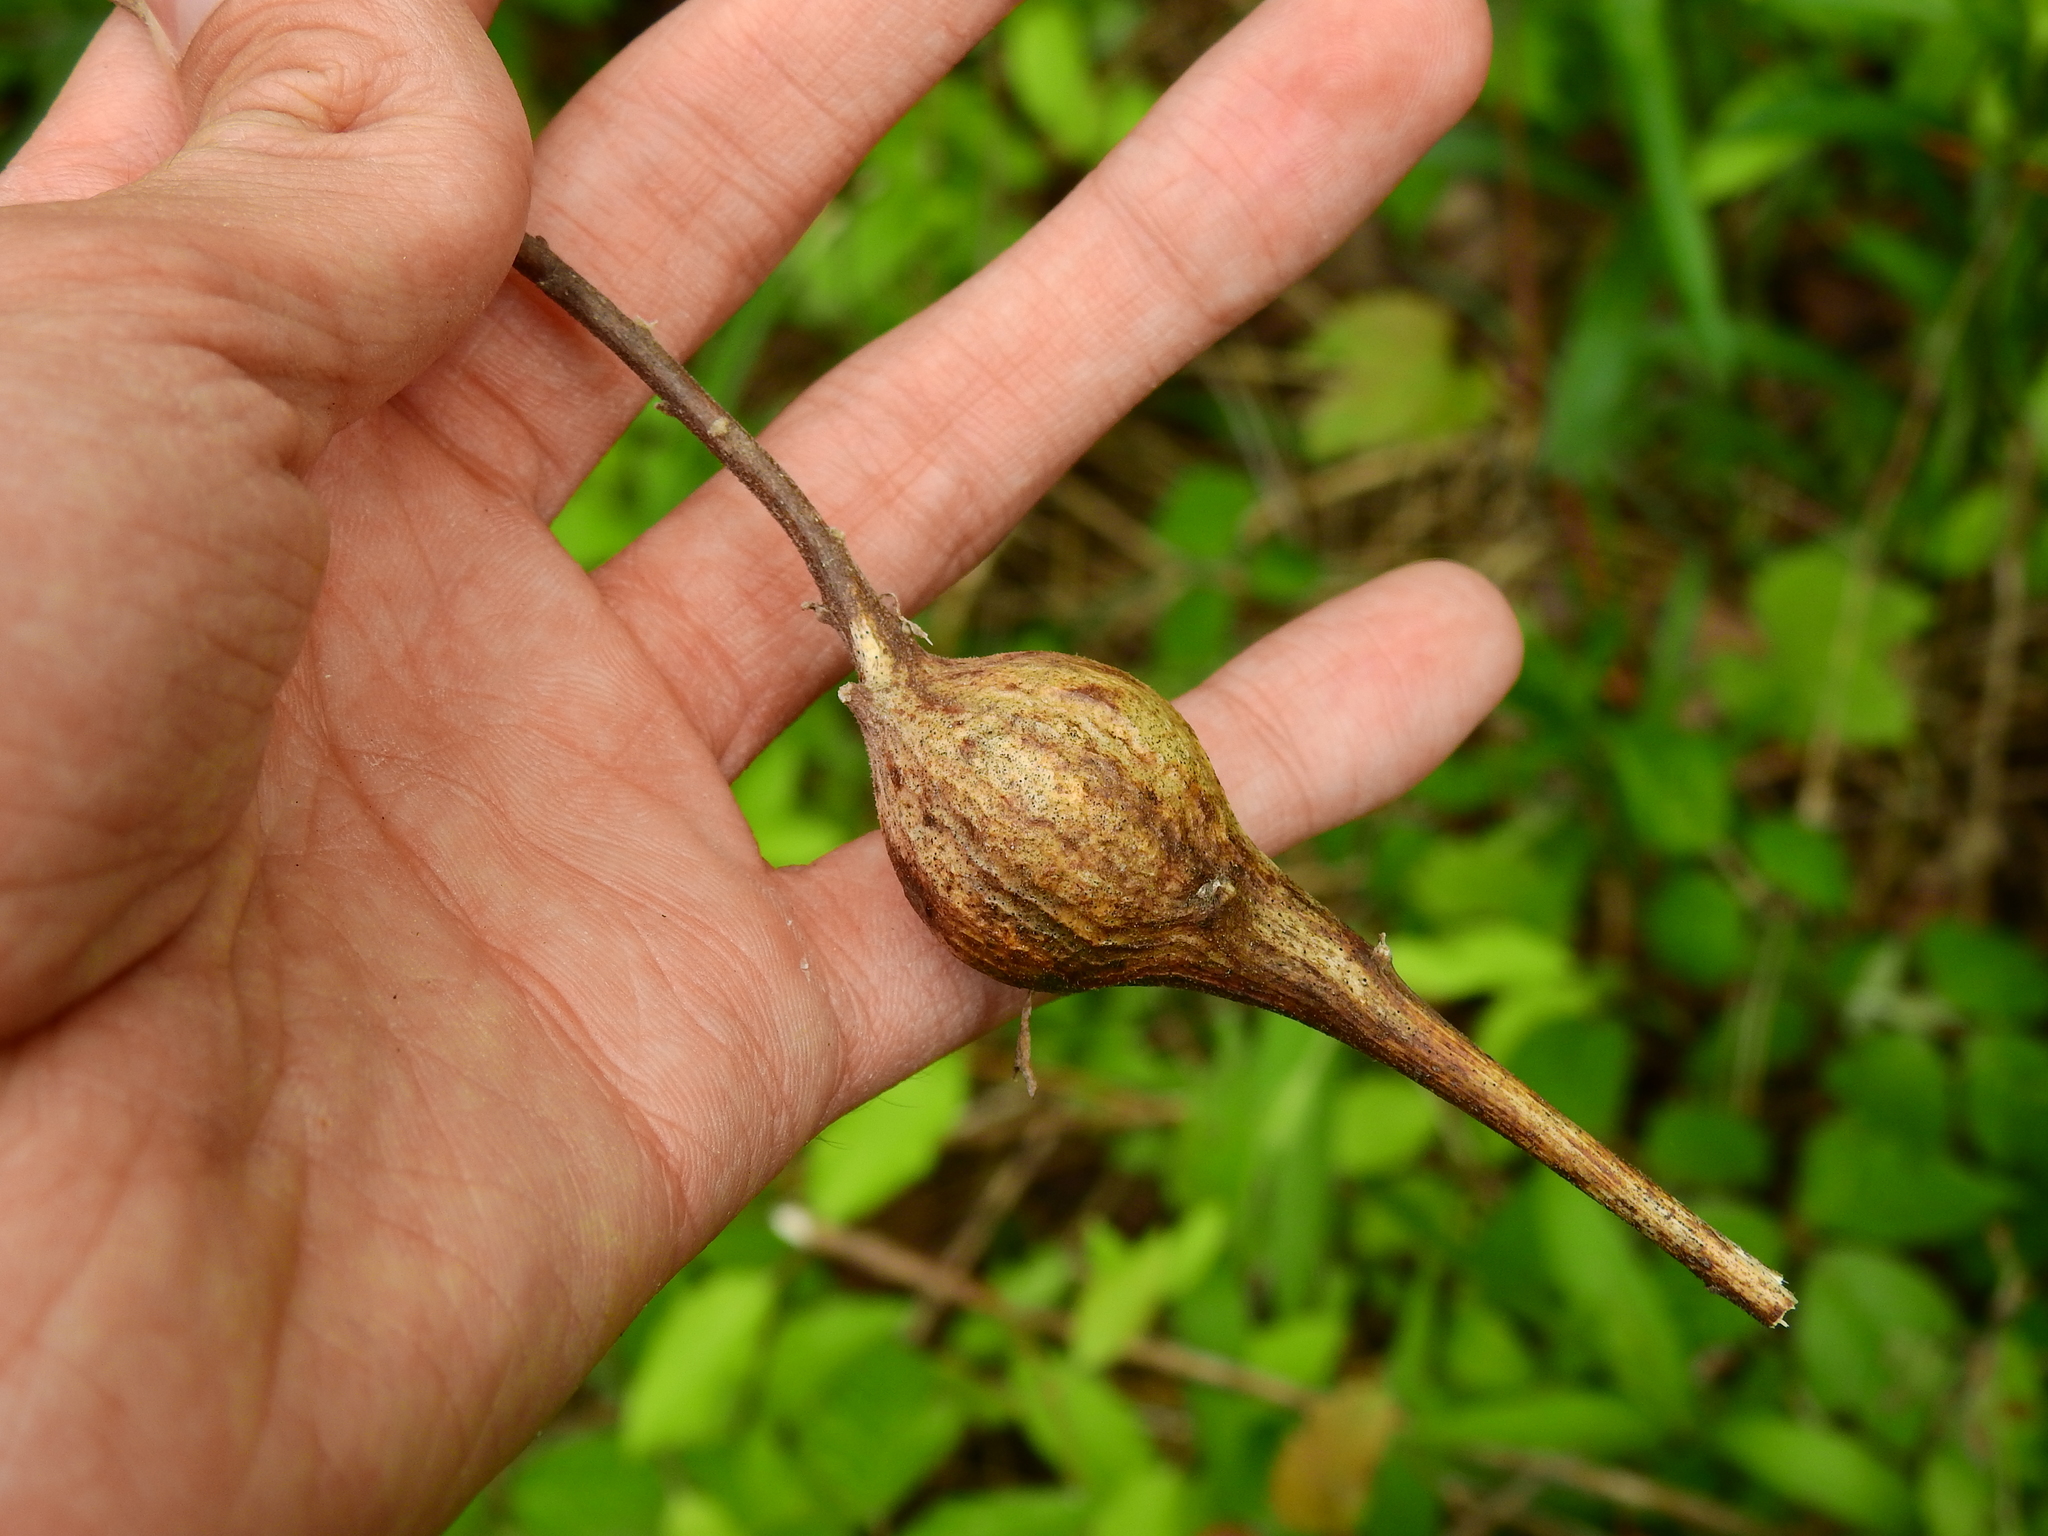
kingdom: Animalia
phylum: Arthropoda
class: Insecta
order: Diptera
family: Tephritidae
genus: Eurosta
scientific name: Eurosta solidaginis
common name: Goldenrod gall fly
